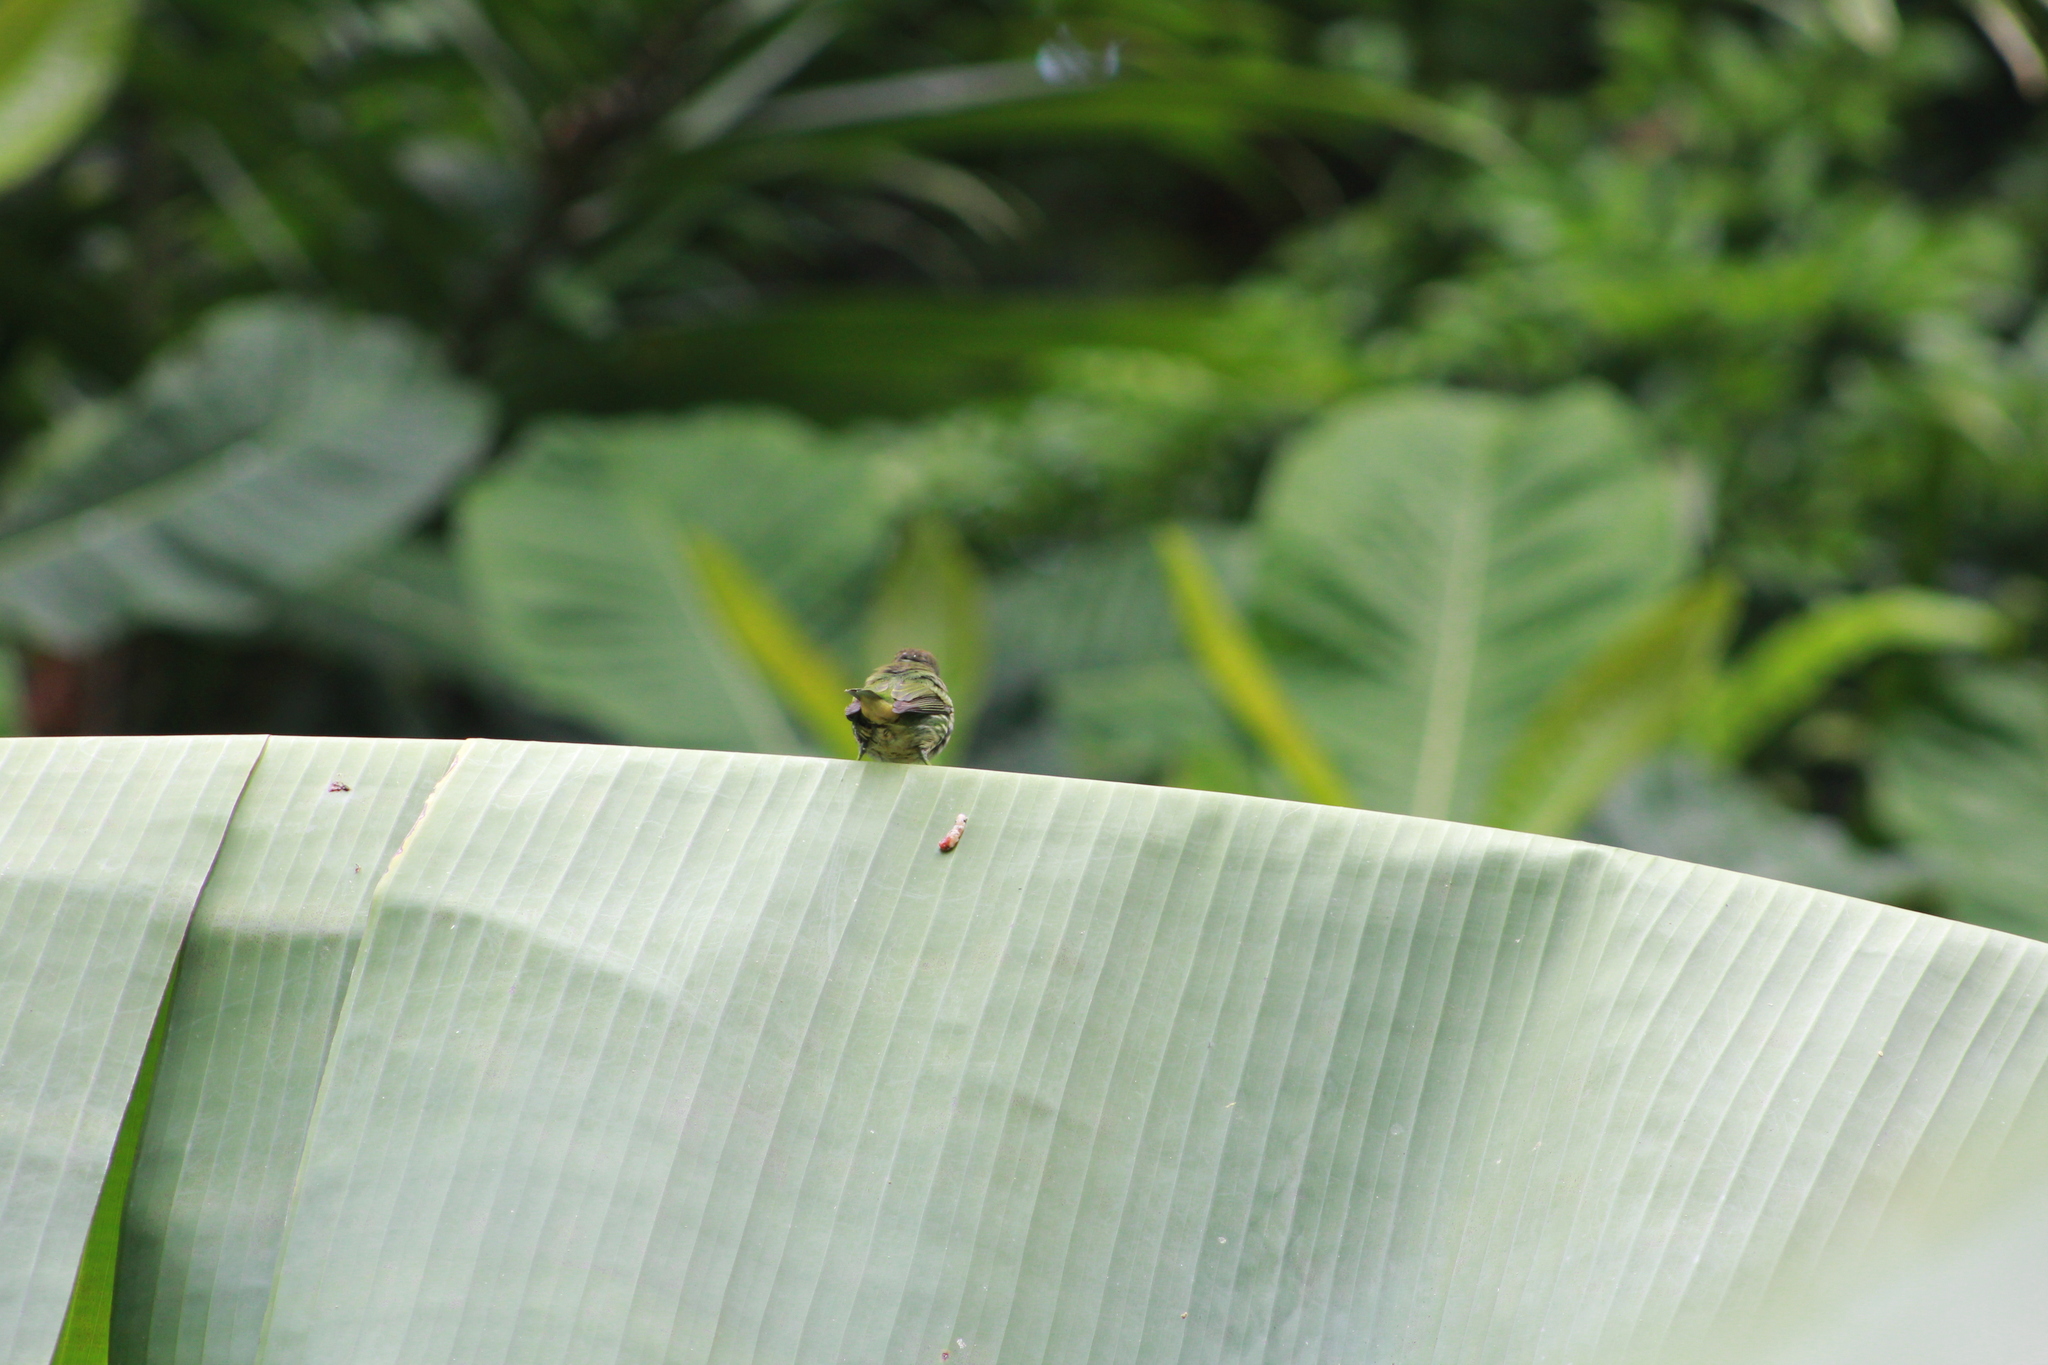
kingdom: Animalia
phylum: Chordata
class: Aves
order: Passeriformes
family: Thraupidae
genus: Cyanerpes
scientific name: Cyanerpes caeruleus
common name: Purple honeycreeper
